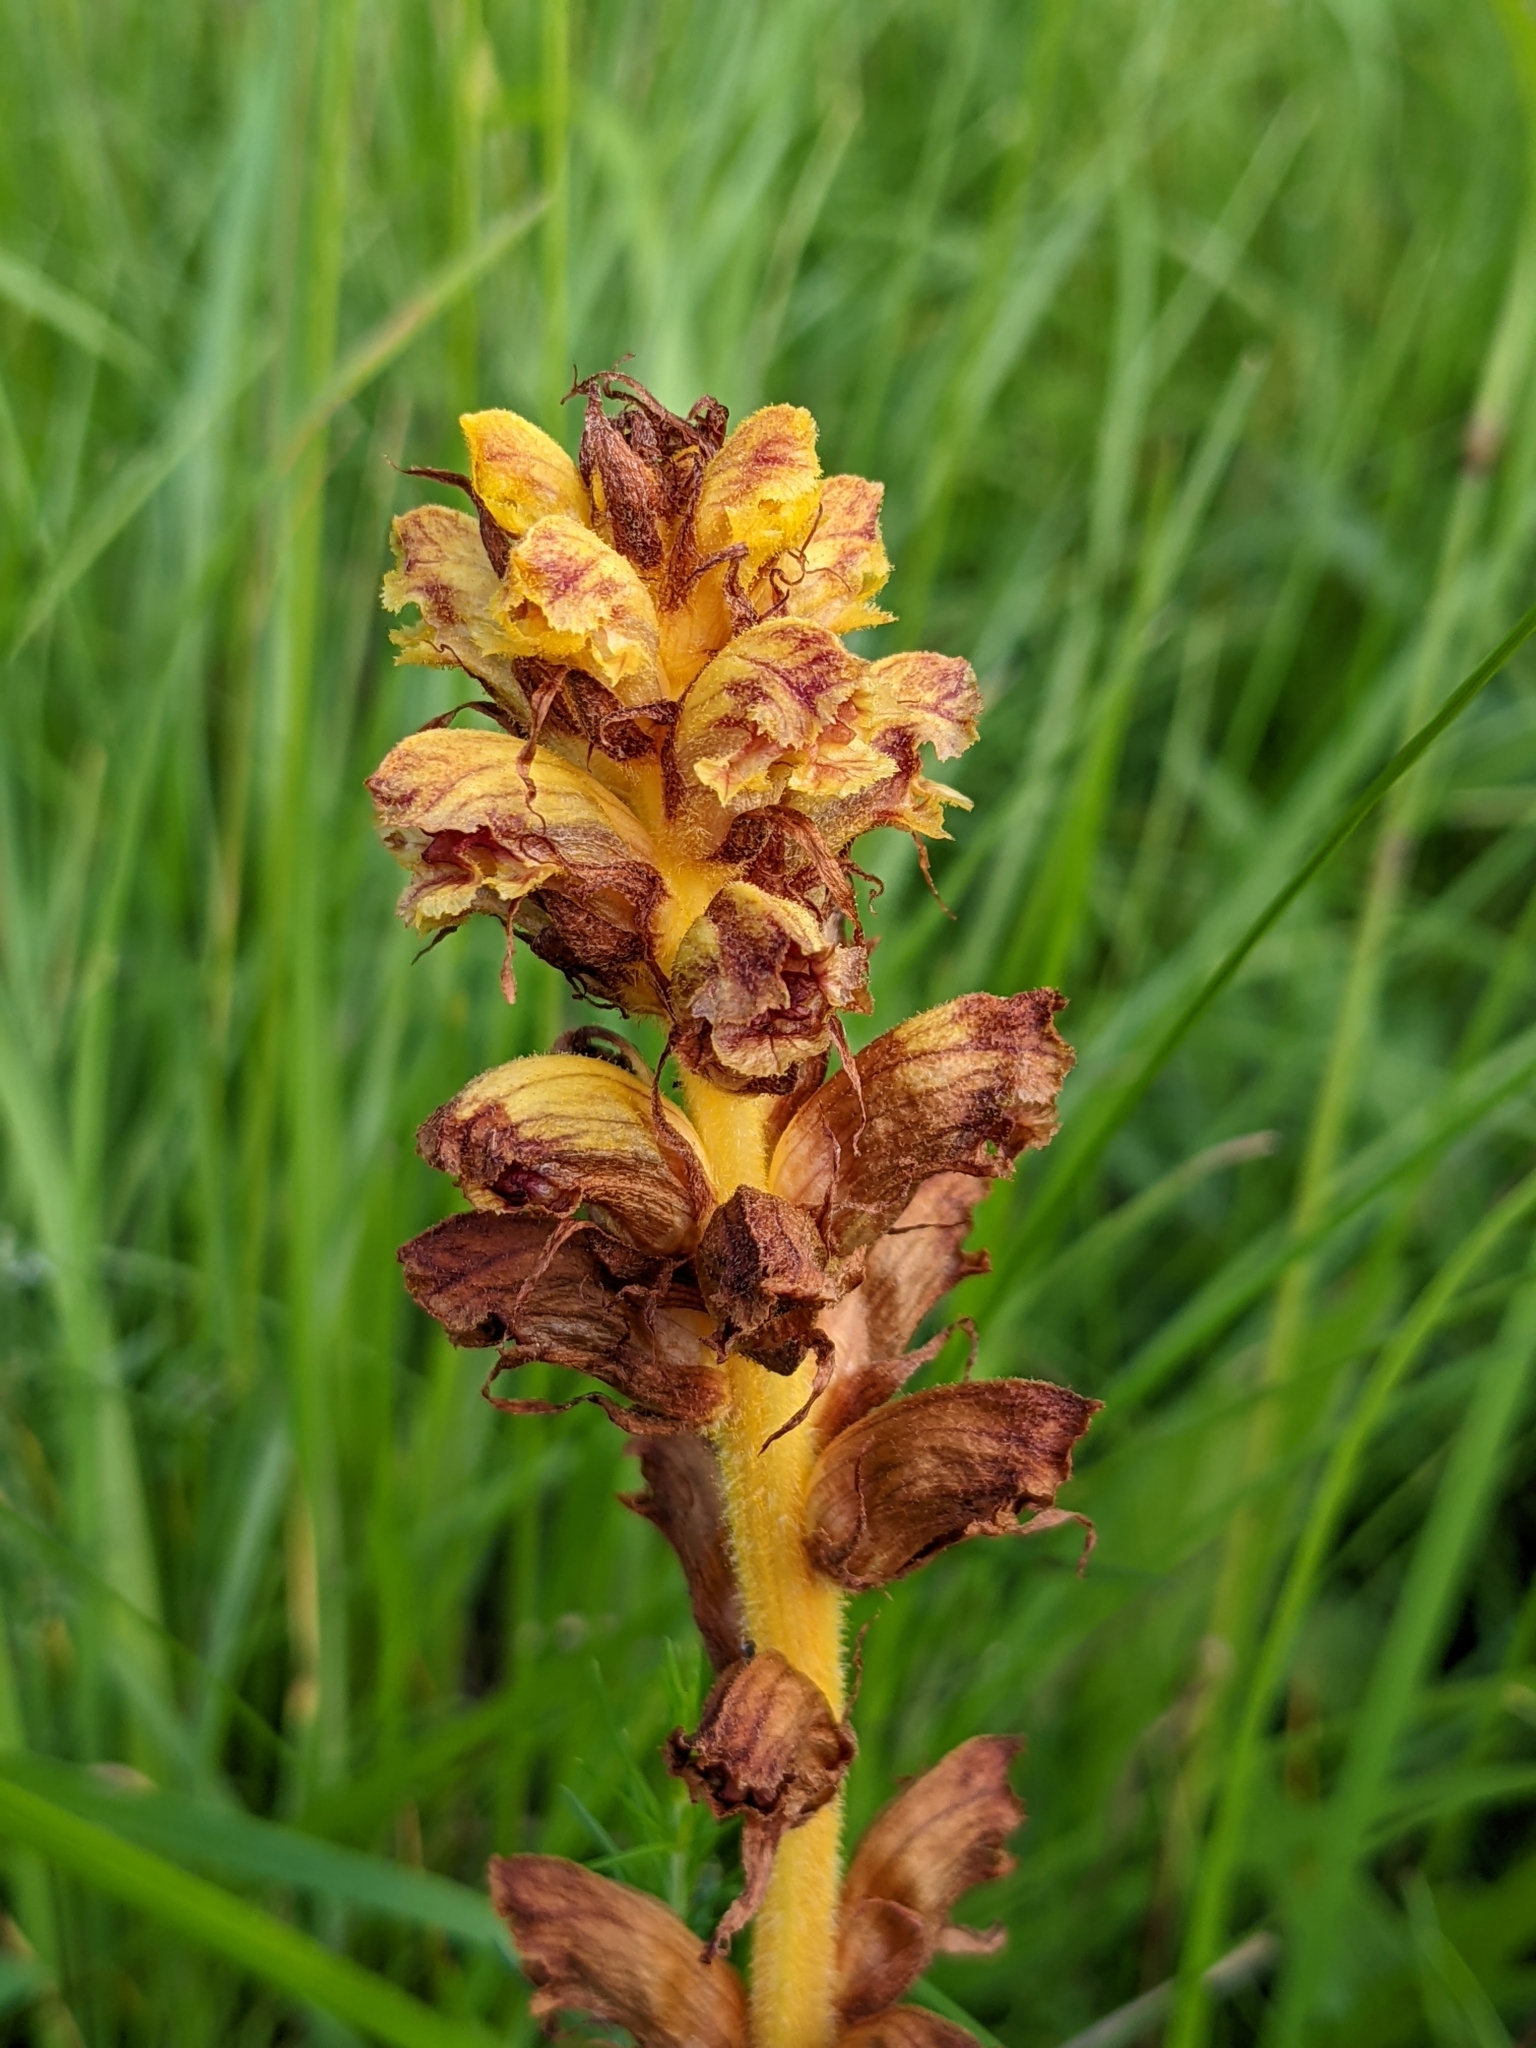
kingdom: Plantae
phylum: Tracheophyta
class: Magnoliopsida
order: Lamiales
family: Orobanchaceae
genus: Orobanche
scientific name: Orobanche gracilis
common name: Slender broomrape
